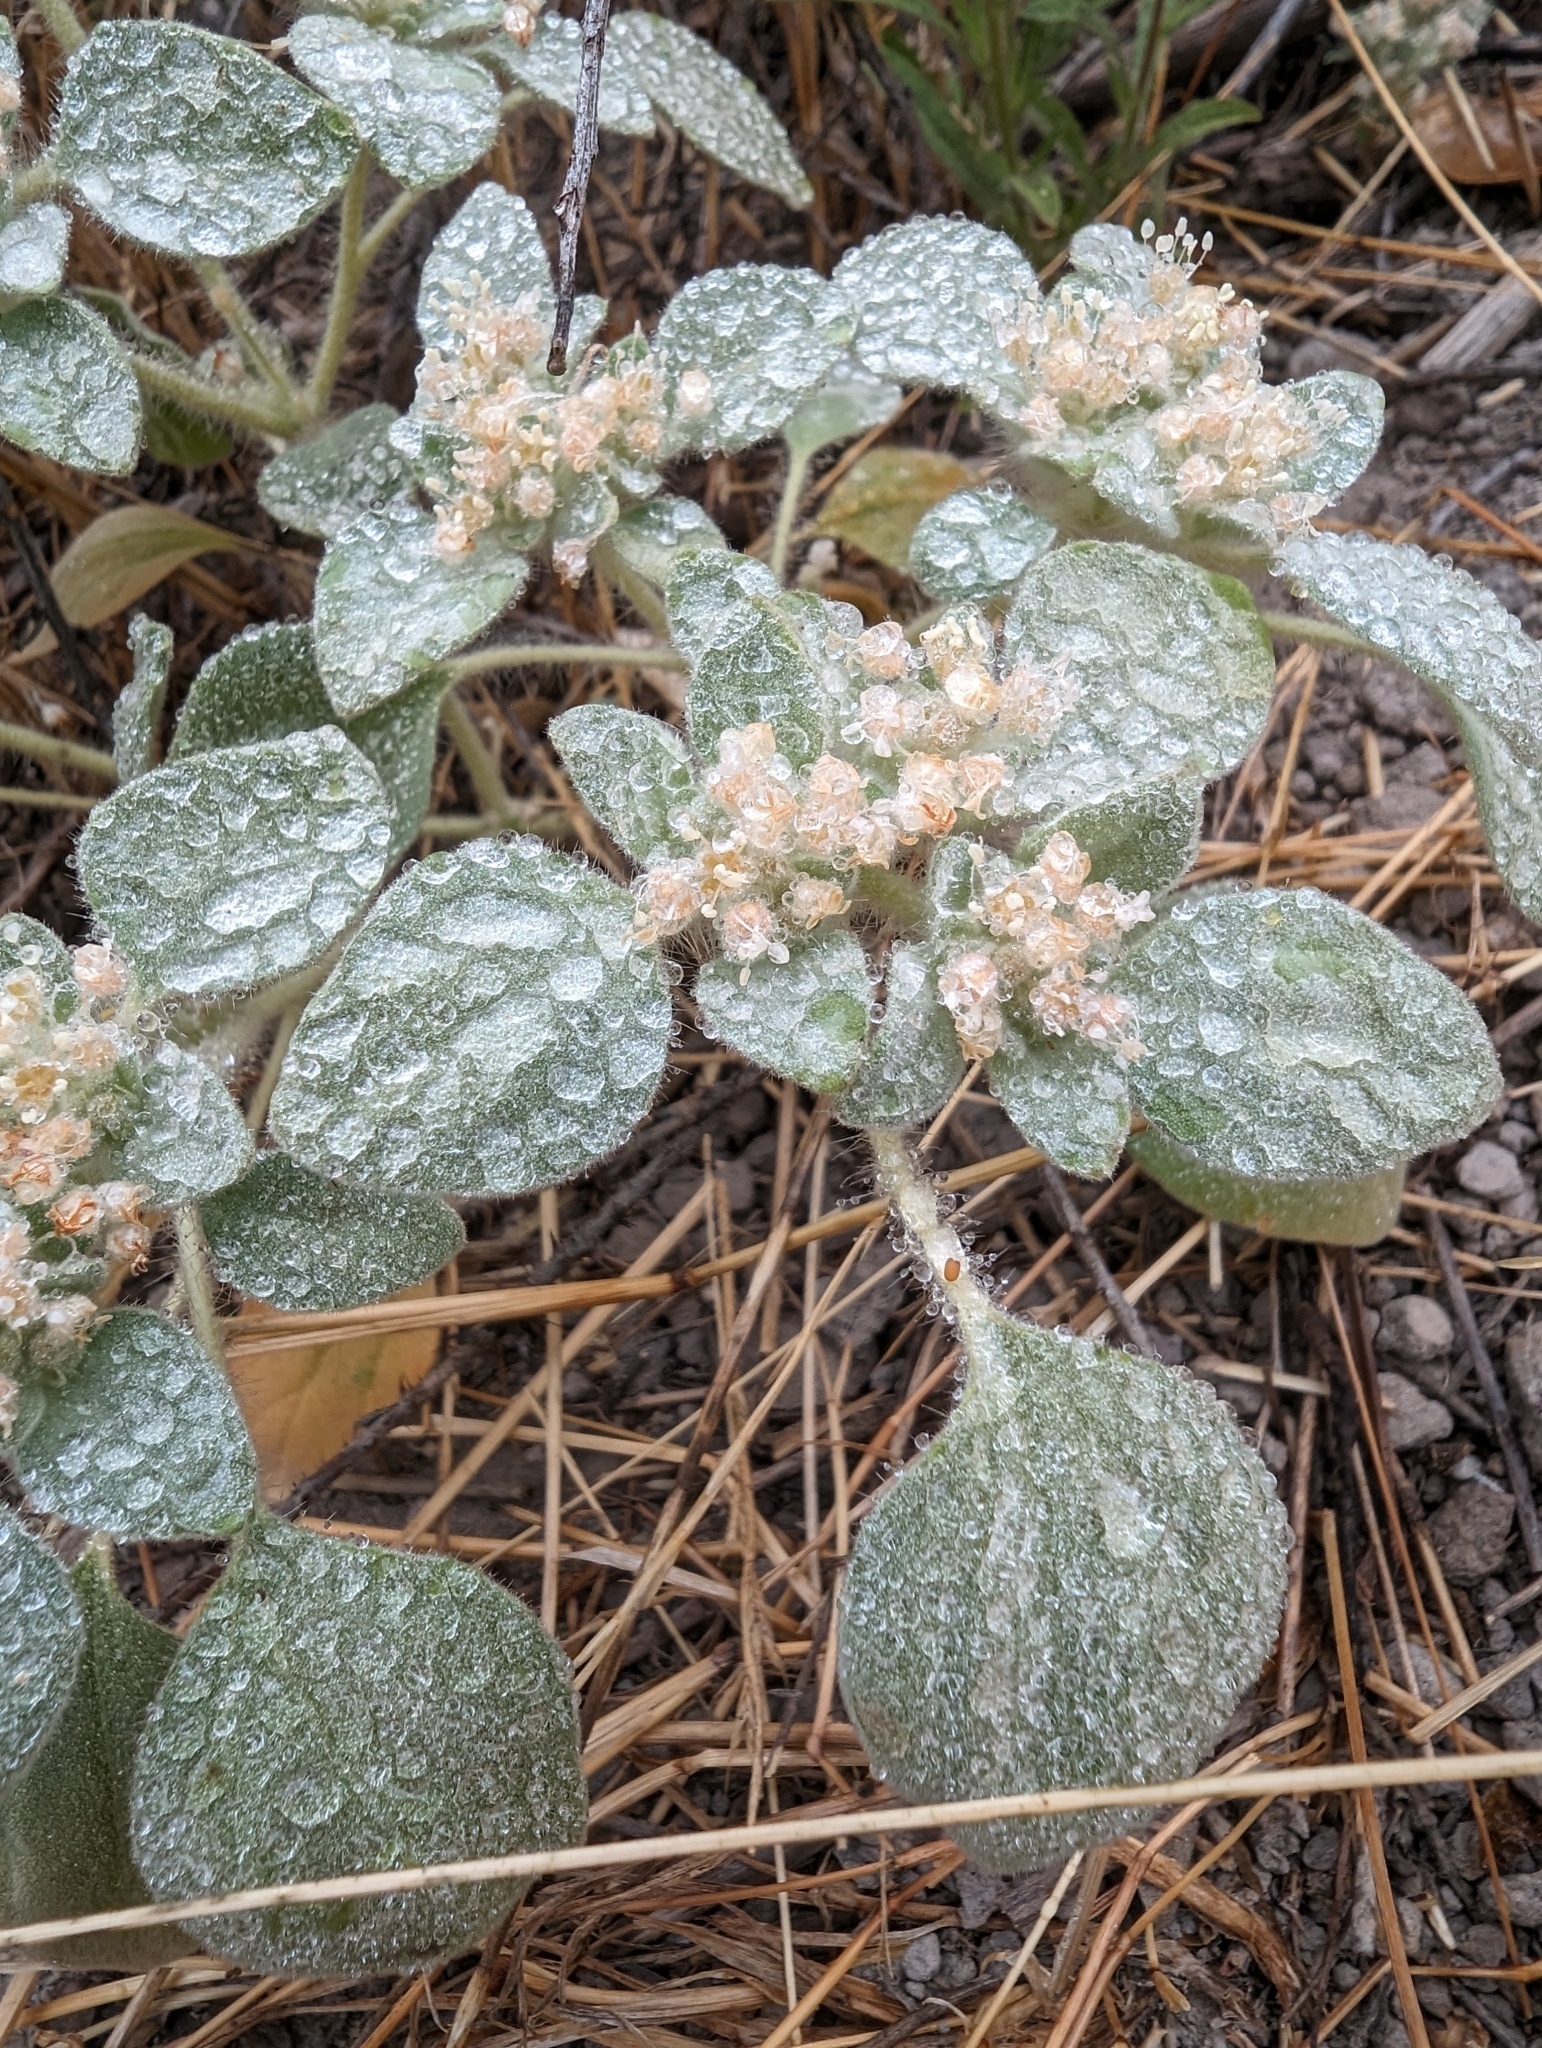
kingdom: Plantae
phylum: Tracheophyta
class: Magnoliopsida
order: Malpighiales
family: Euphorbiaceae
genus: Croton
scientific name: Croton setiger
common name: Dove weed
